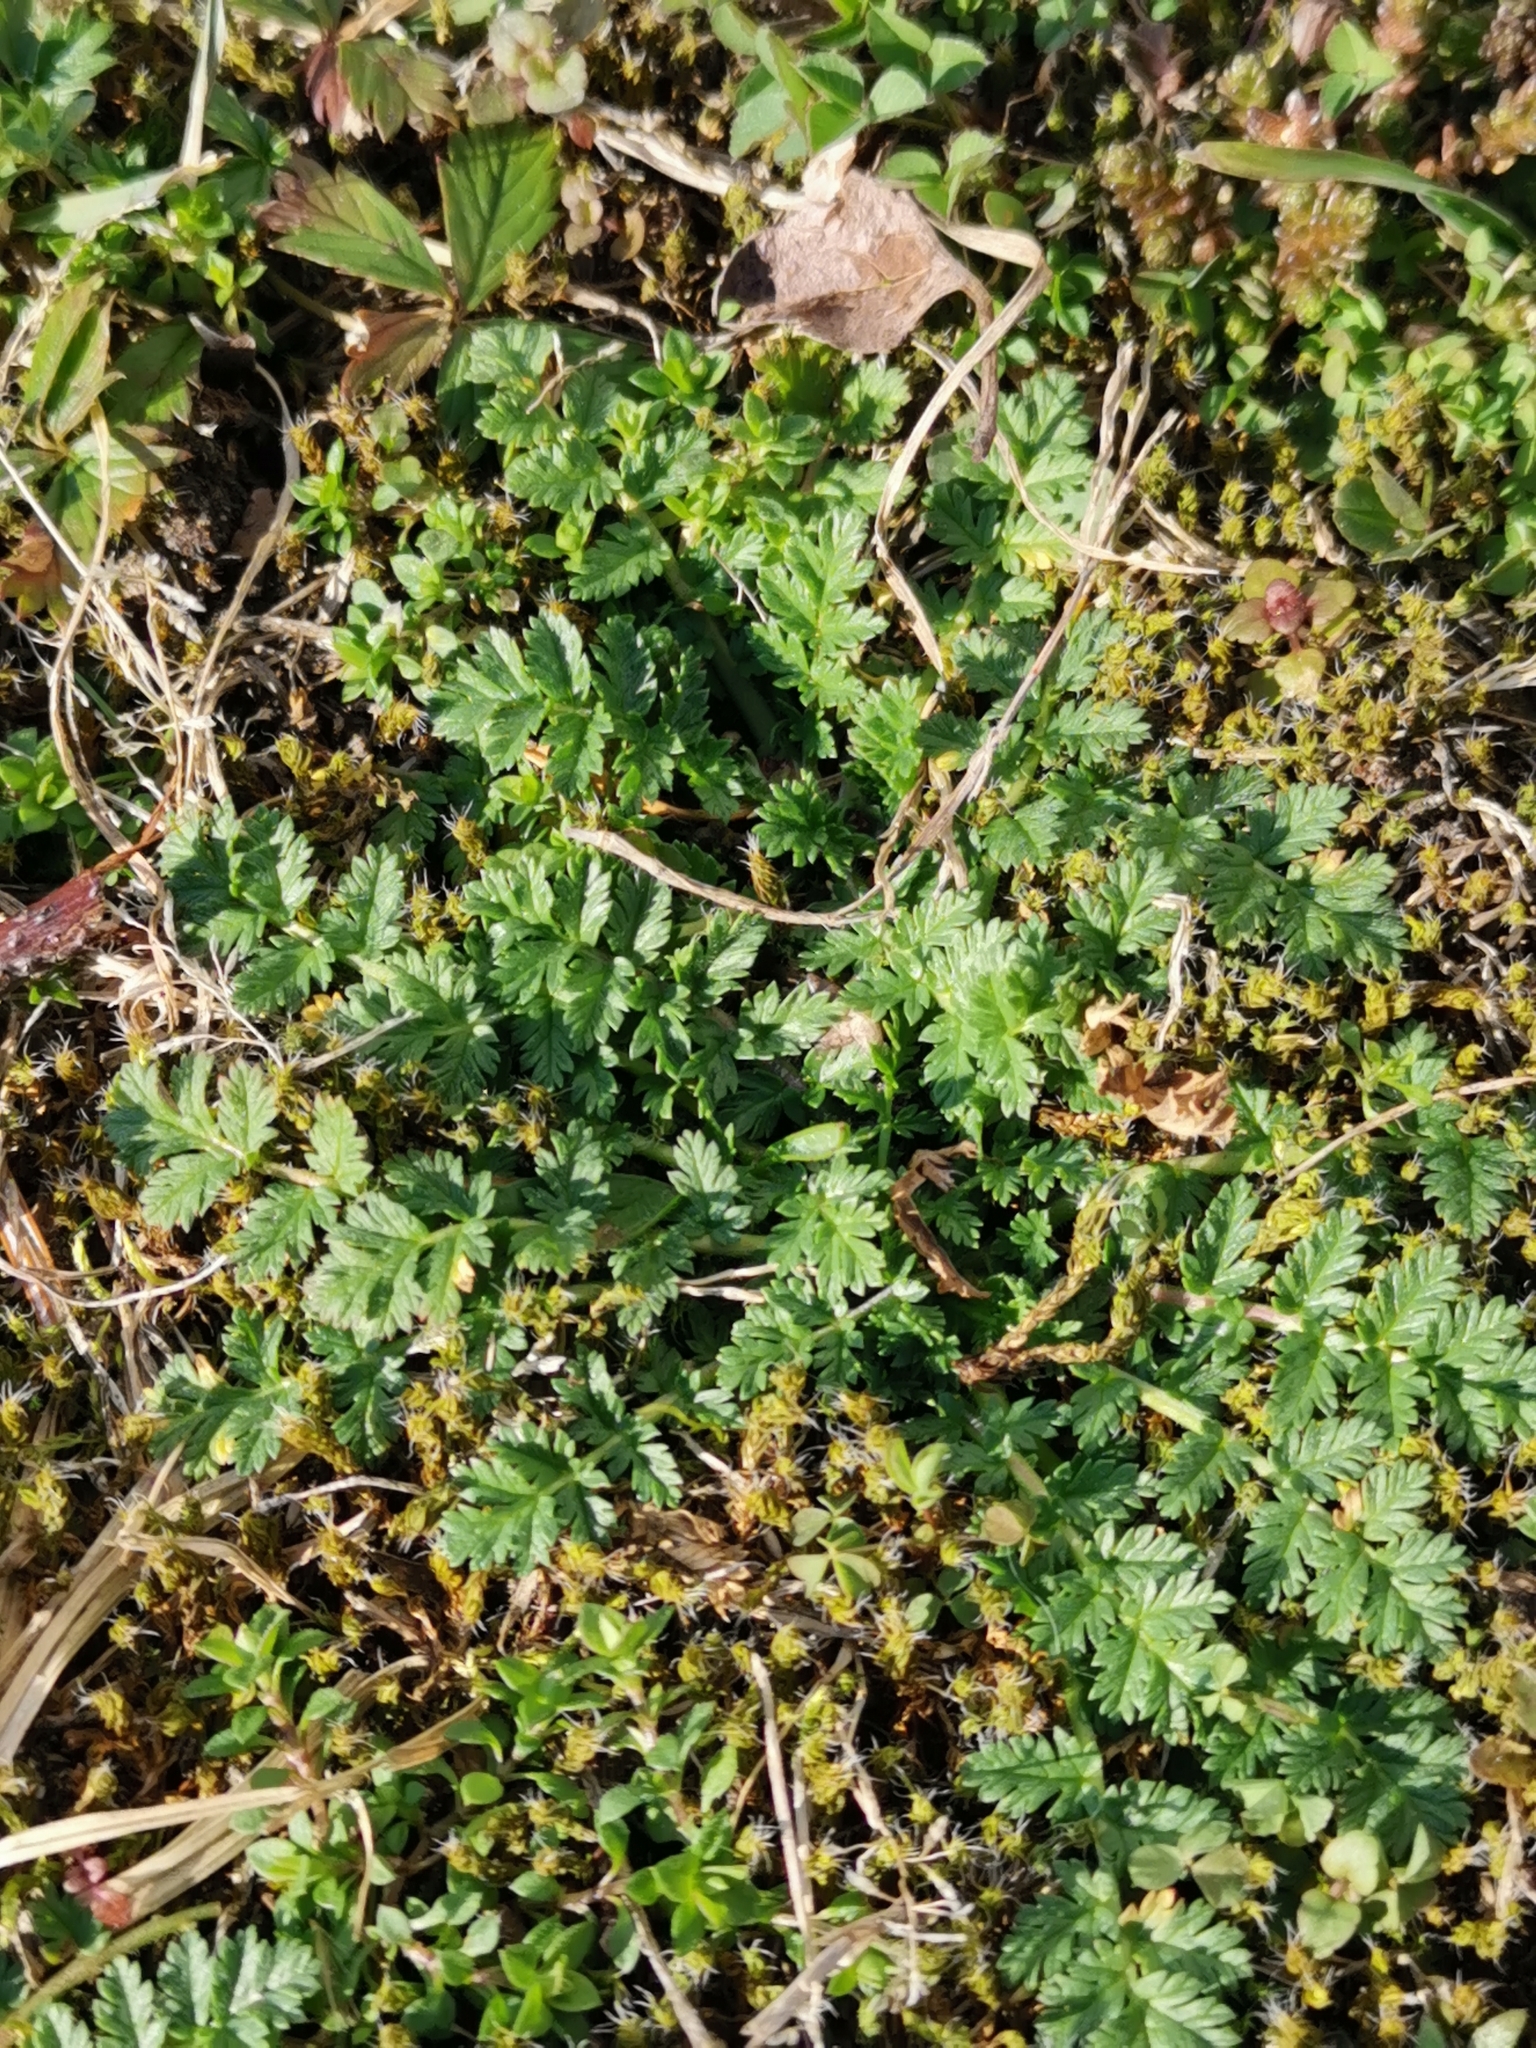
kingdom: Plantae
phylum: Tracheophyta
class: Magnoliopsida
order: Geraniales
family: Geraniaceae
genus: Erodium
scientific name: Erodium cicutarium
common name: Common stork's-bill
